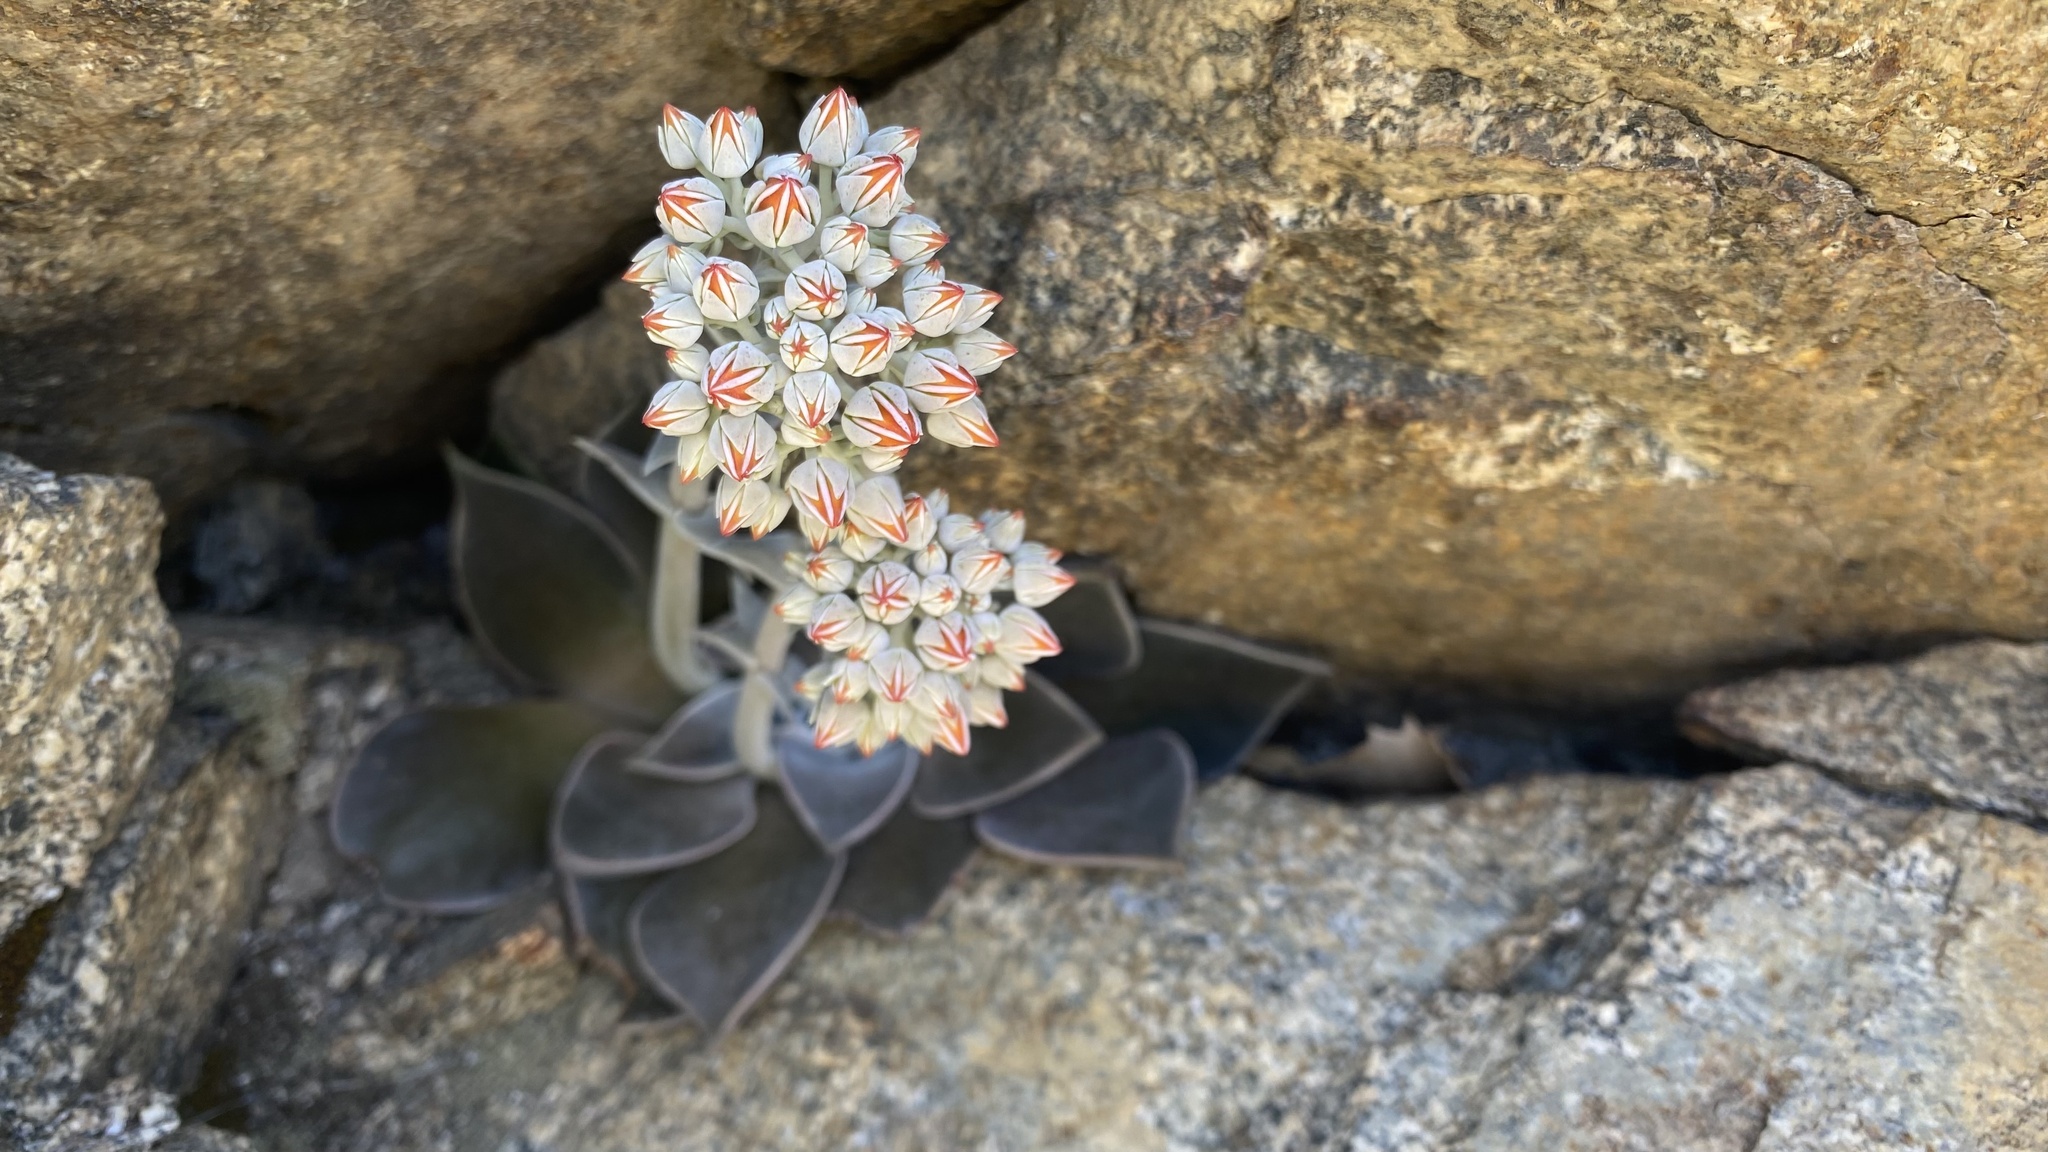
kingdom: Plantae
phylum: Tracheophyta
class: Magnoliopsida
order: Saxifragales
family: Crassulaceae
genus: Dudleya
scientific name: Dudleya cymosa
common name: Canyon dudleya
